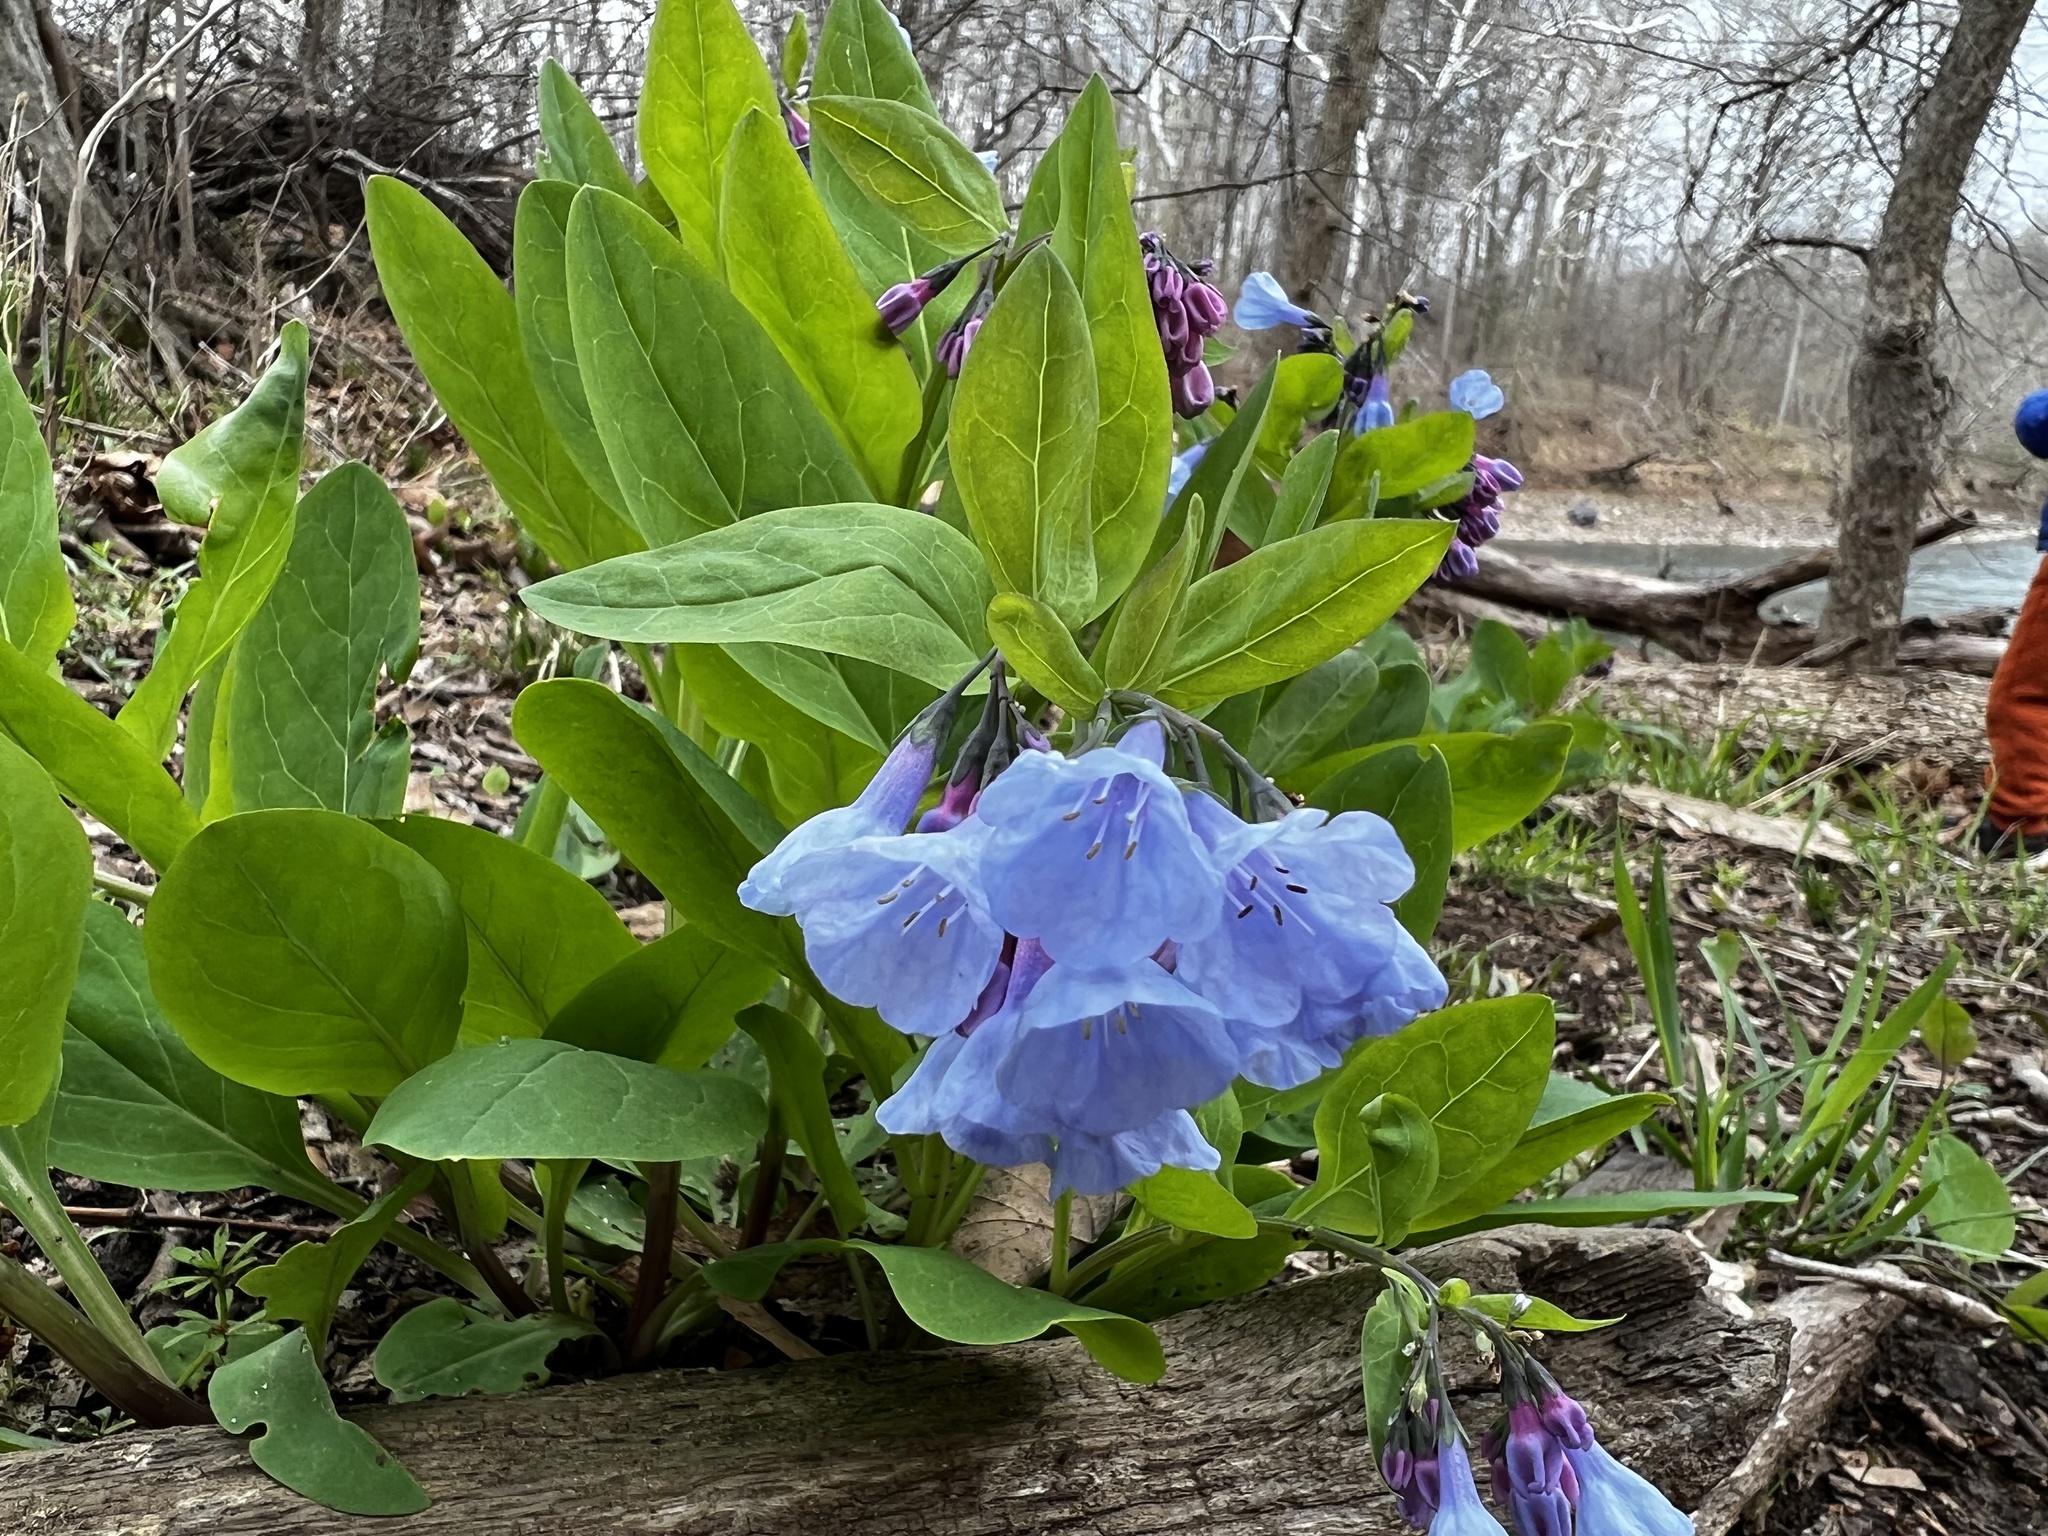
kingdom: Plantae
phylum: Tracheophyta
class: Magnoliopsida
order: Boraginales
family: Boraginaceae
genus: Mertensia
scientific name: Mertensia virginica
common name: Virginia bluebells
